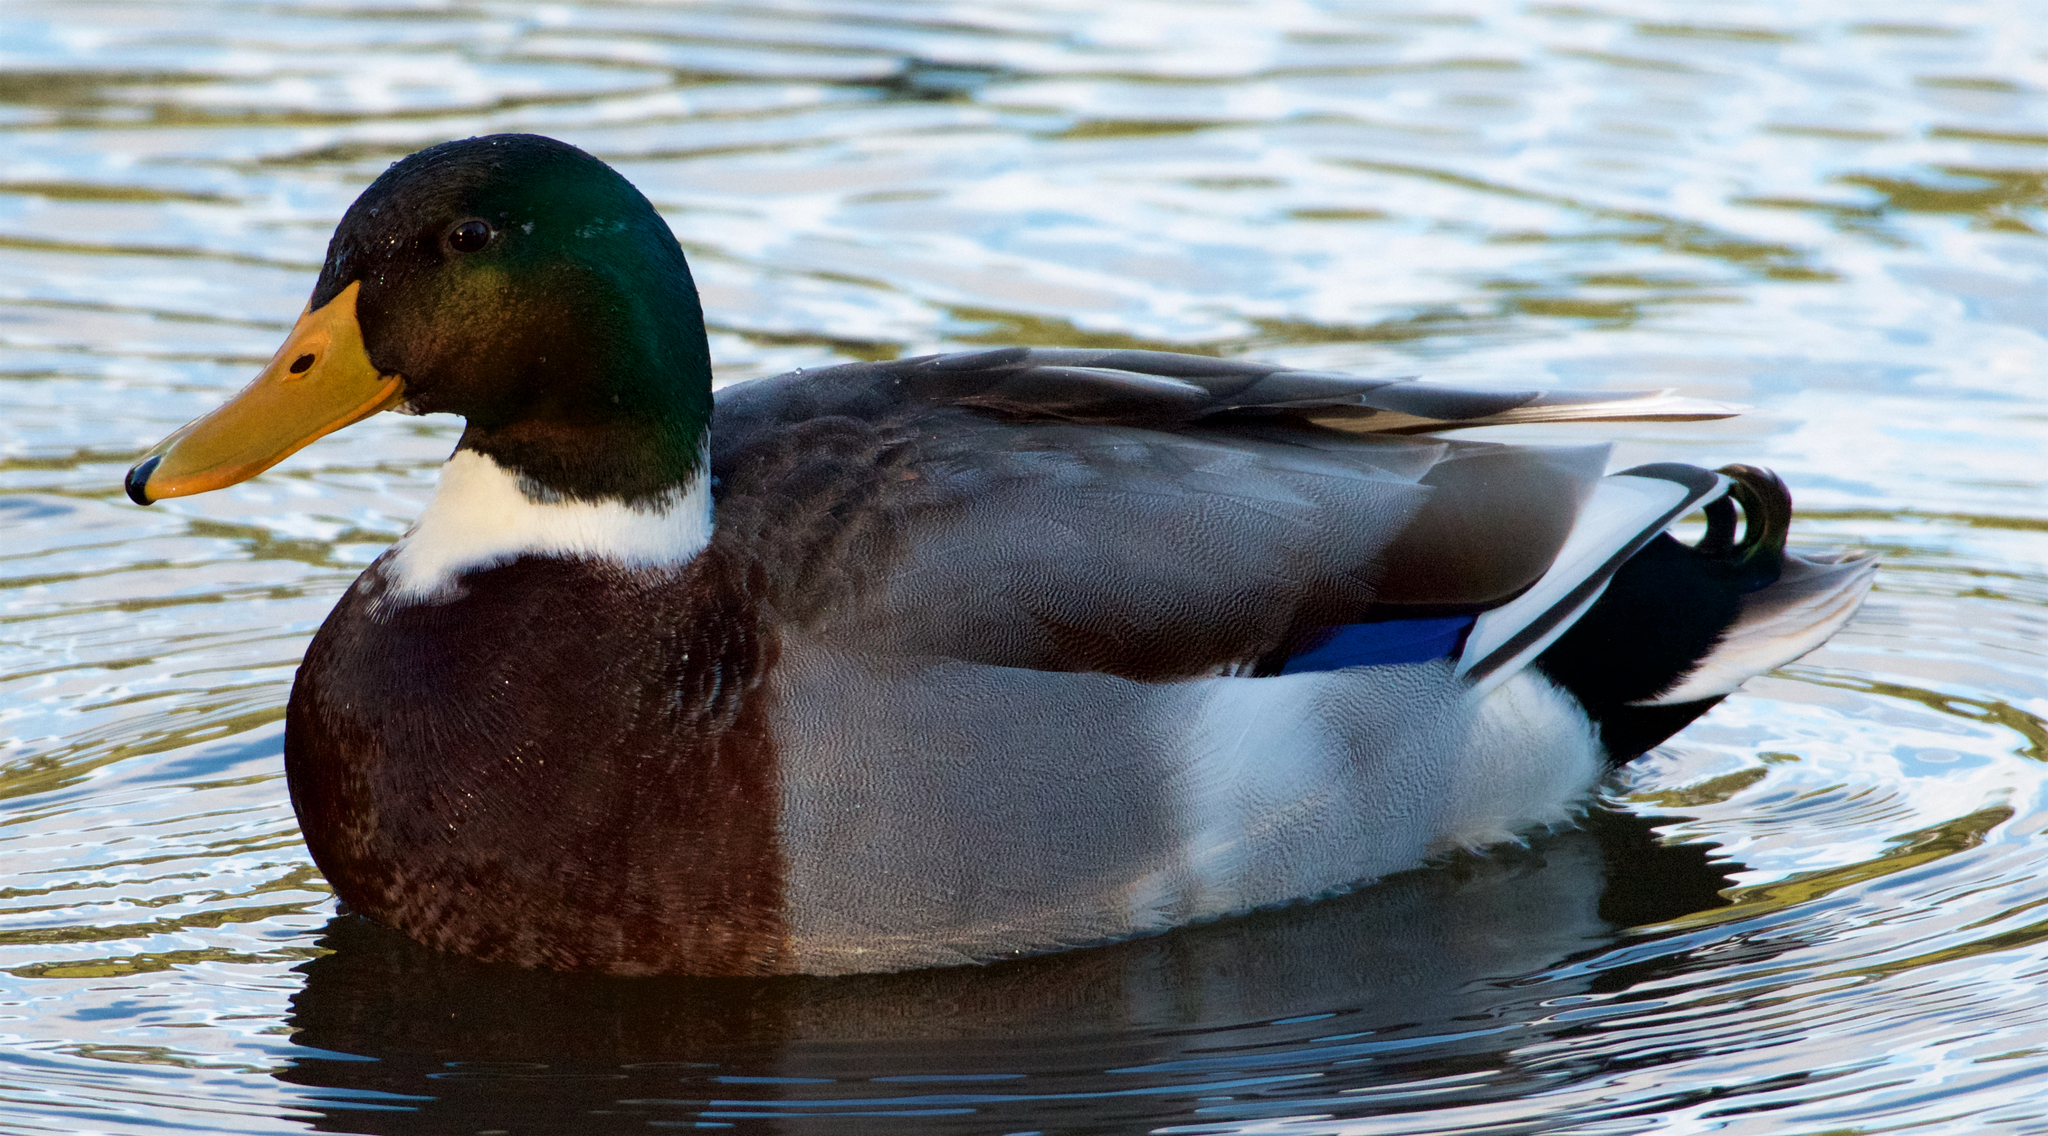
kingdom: Animalia
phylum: Chordata
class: Aves
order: Anseriformes
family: Anatidae
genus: Anas
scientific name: Anas platyrhynchos
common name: Mallard
